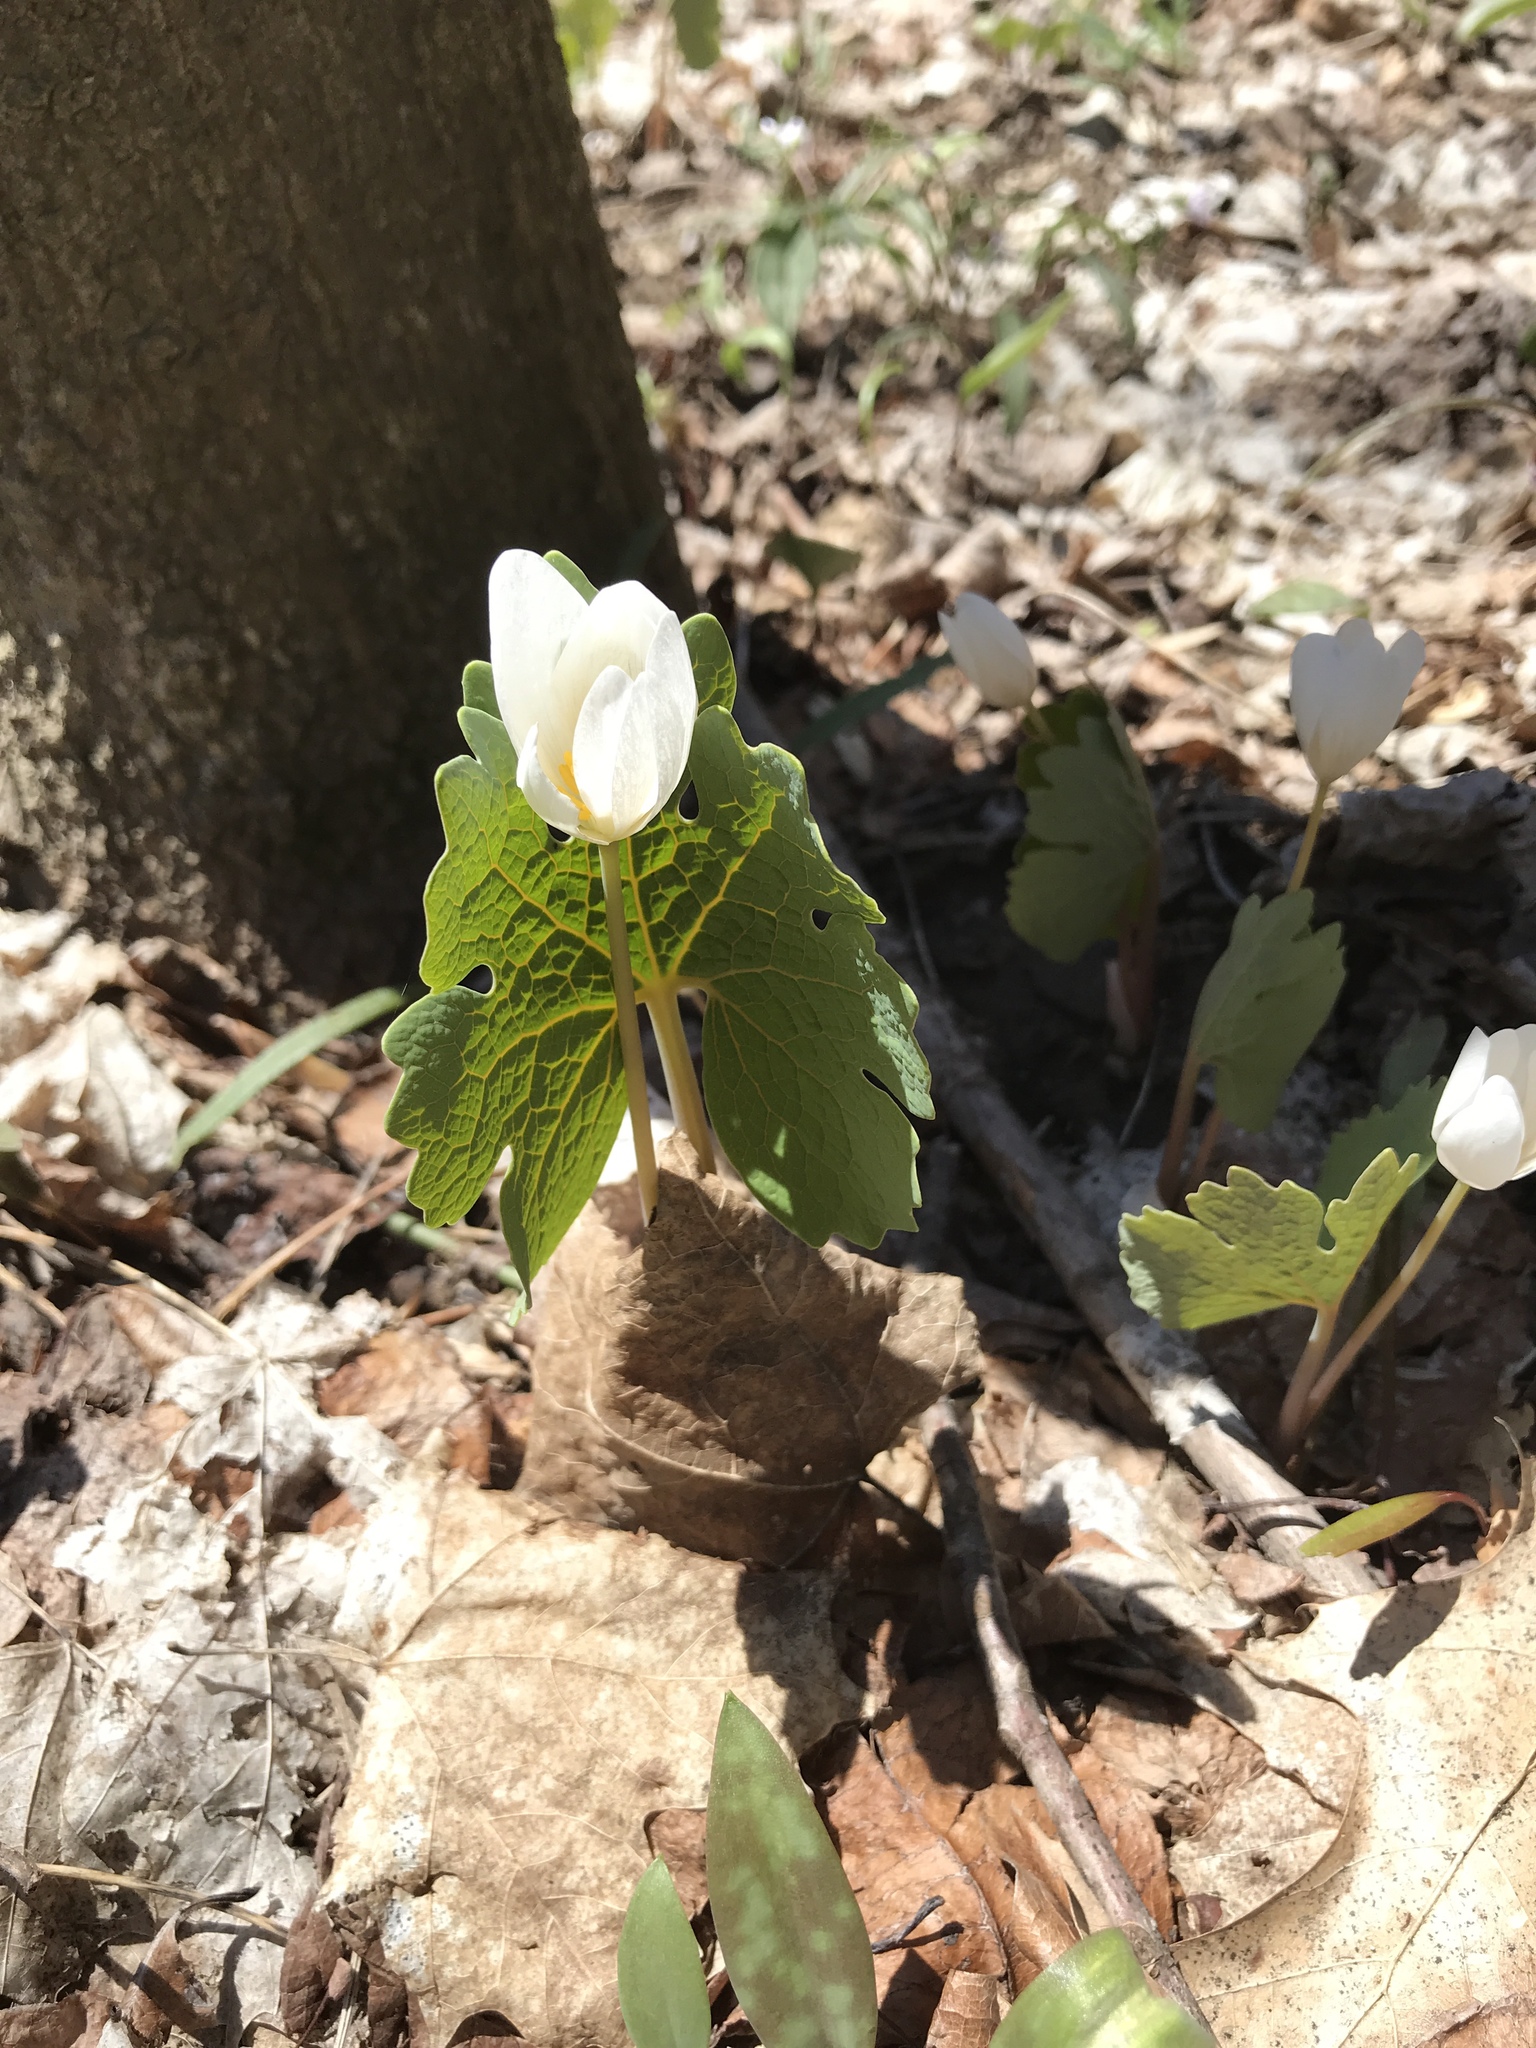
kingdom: Plantae
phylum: Tracheophyta
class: Magnoliopsida
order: Ranunculales
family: Papaveraceae
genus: Sanguinaria
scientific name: Sanguinaria canadensis
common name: Bloodroot
